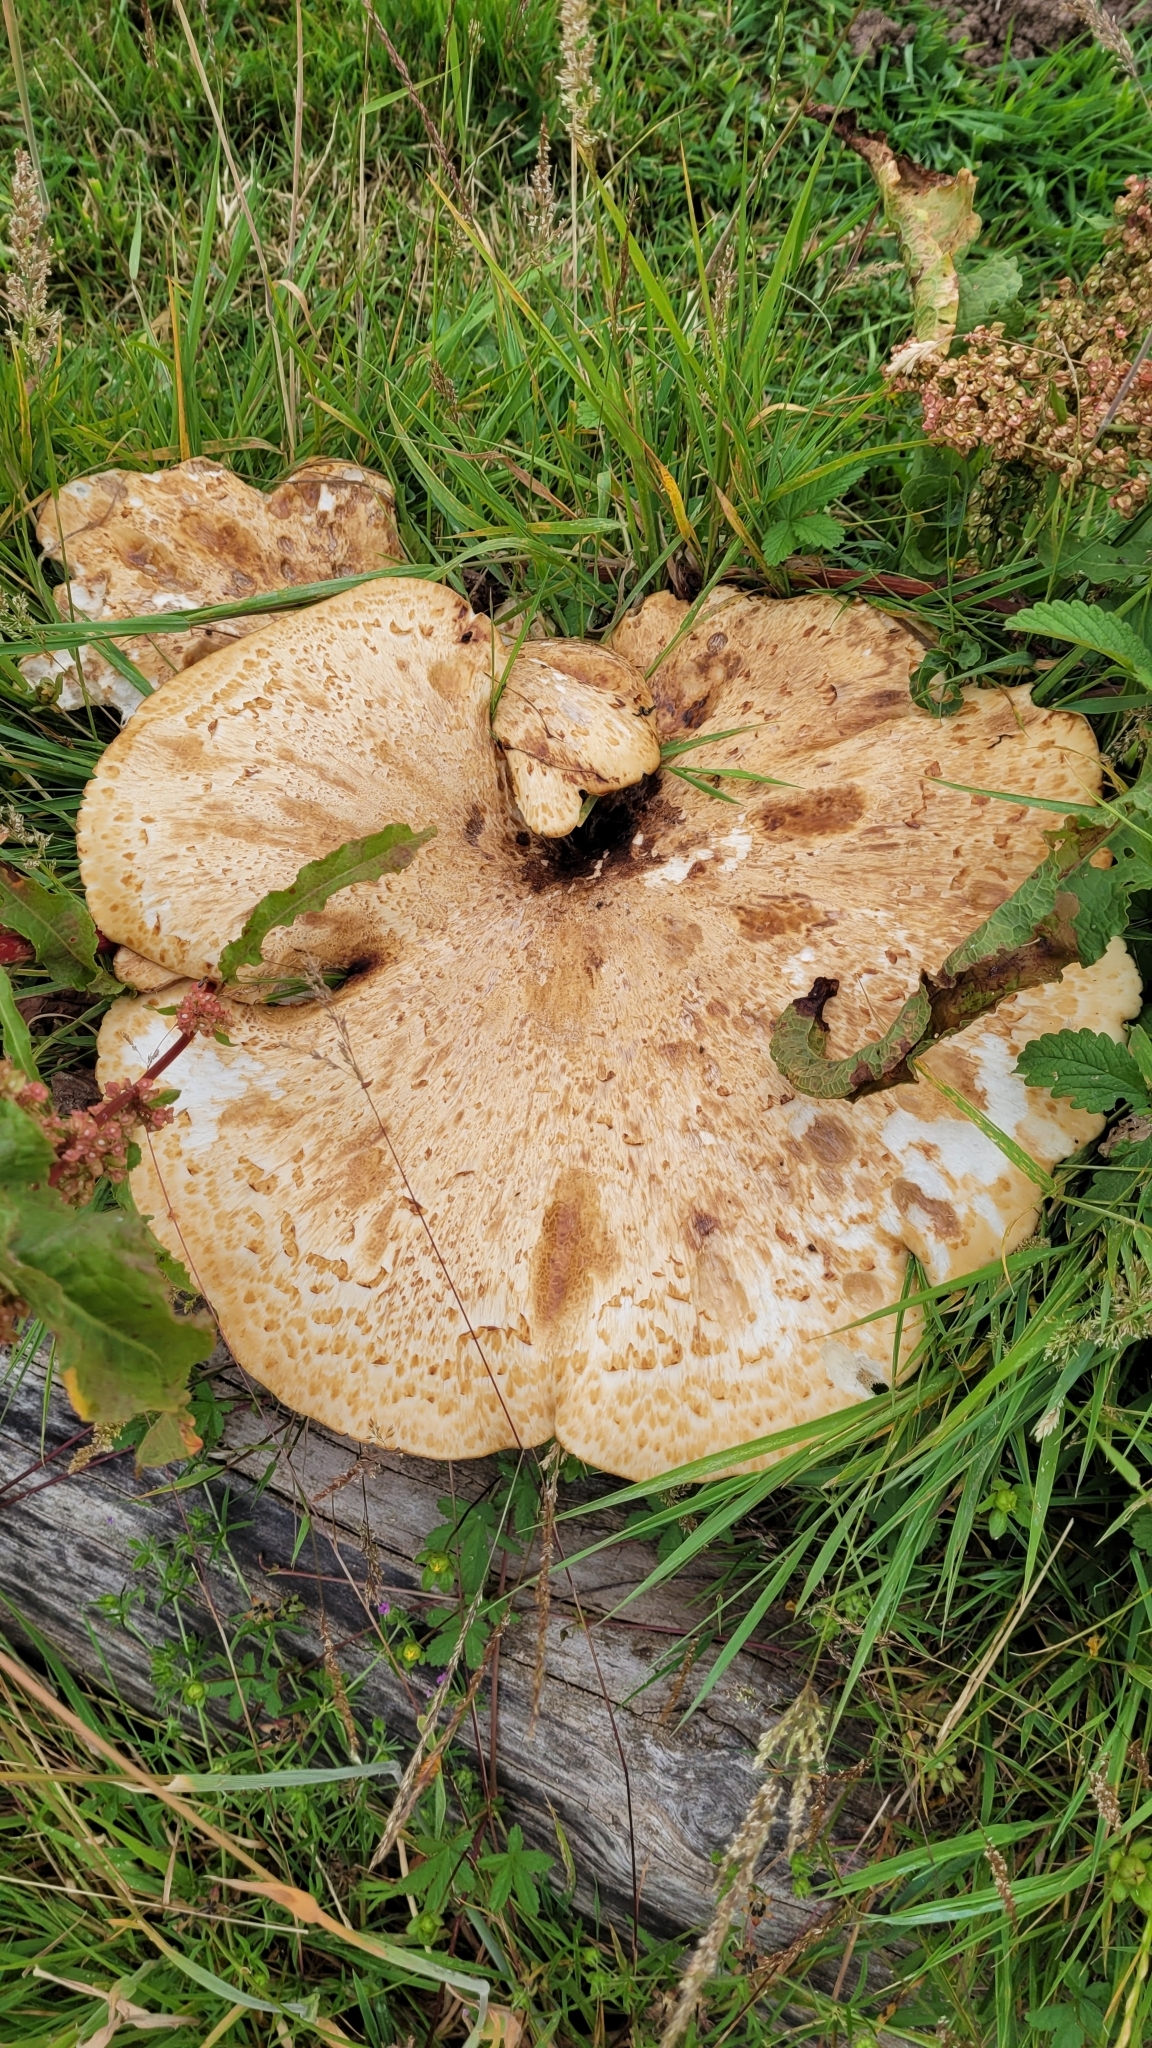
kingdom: Fungi
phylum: Basidiomycota
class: Agaricomycetes
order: Polyporales
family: Polyporaceae
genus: Cerioporus
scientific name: Cerioporus squamosus
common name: Dryad's saddle
